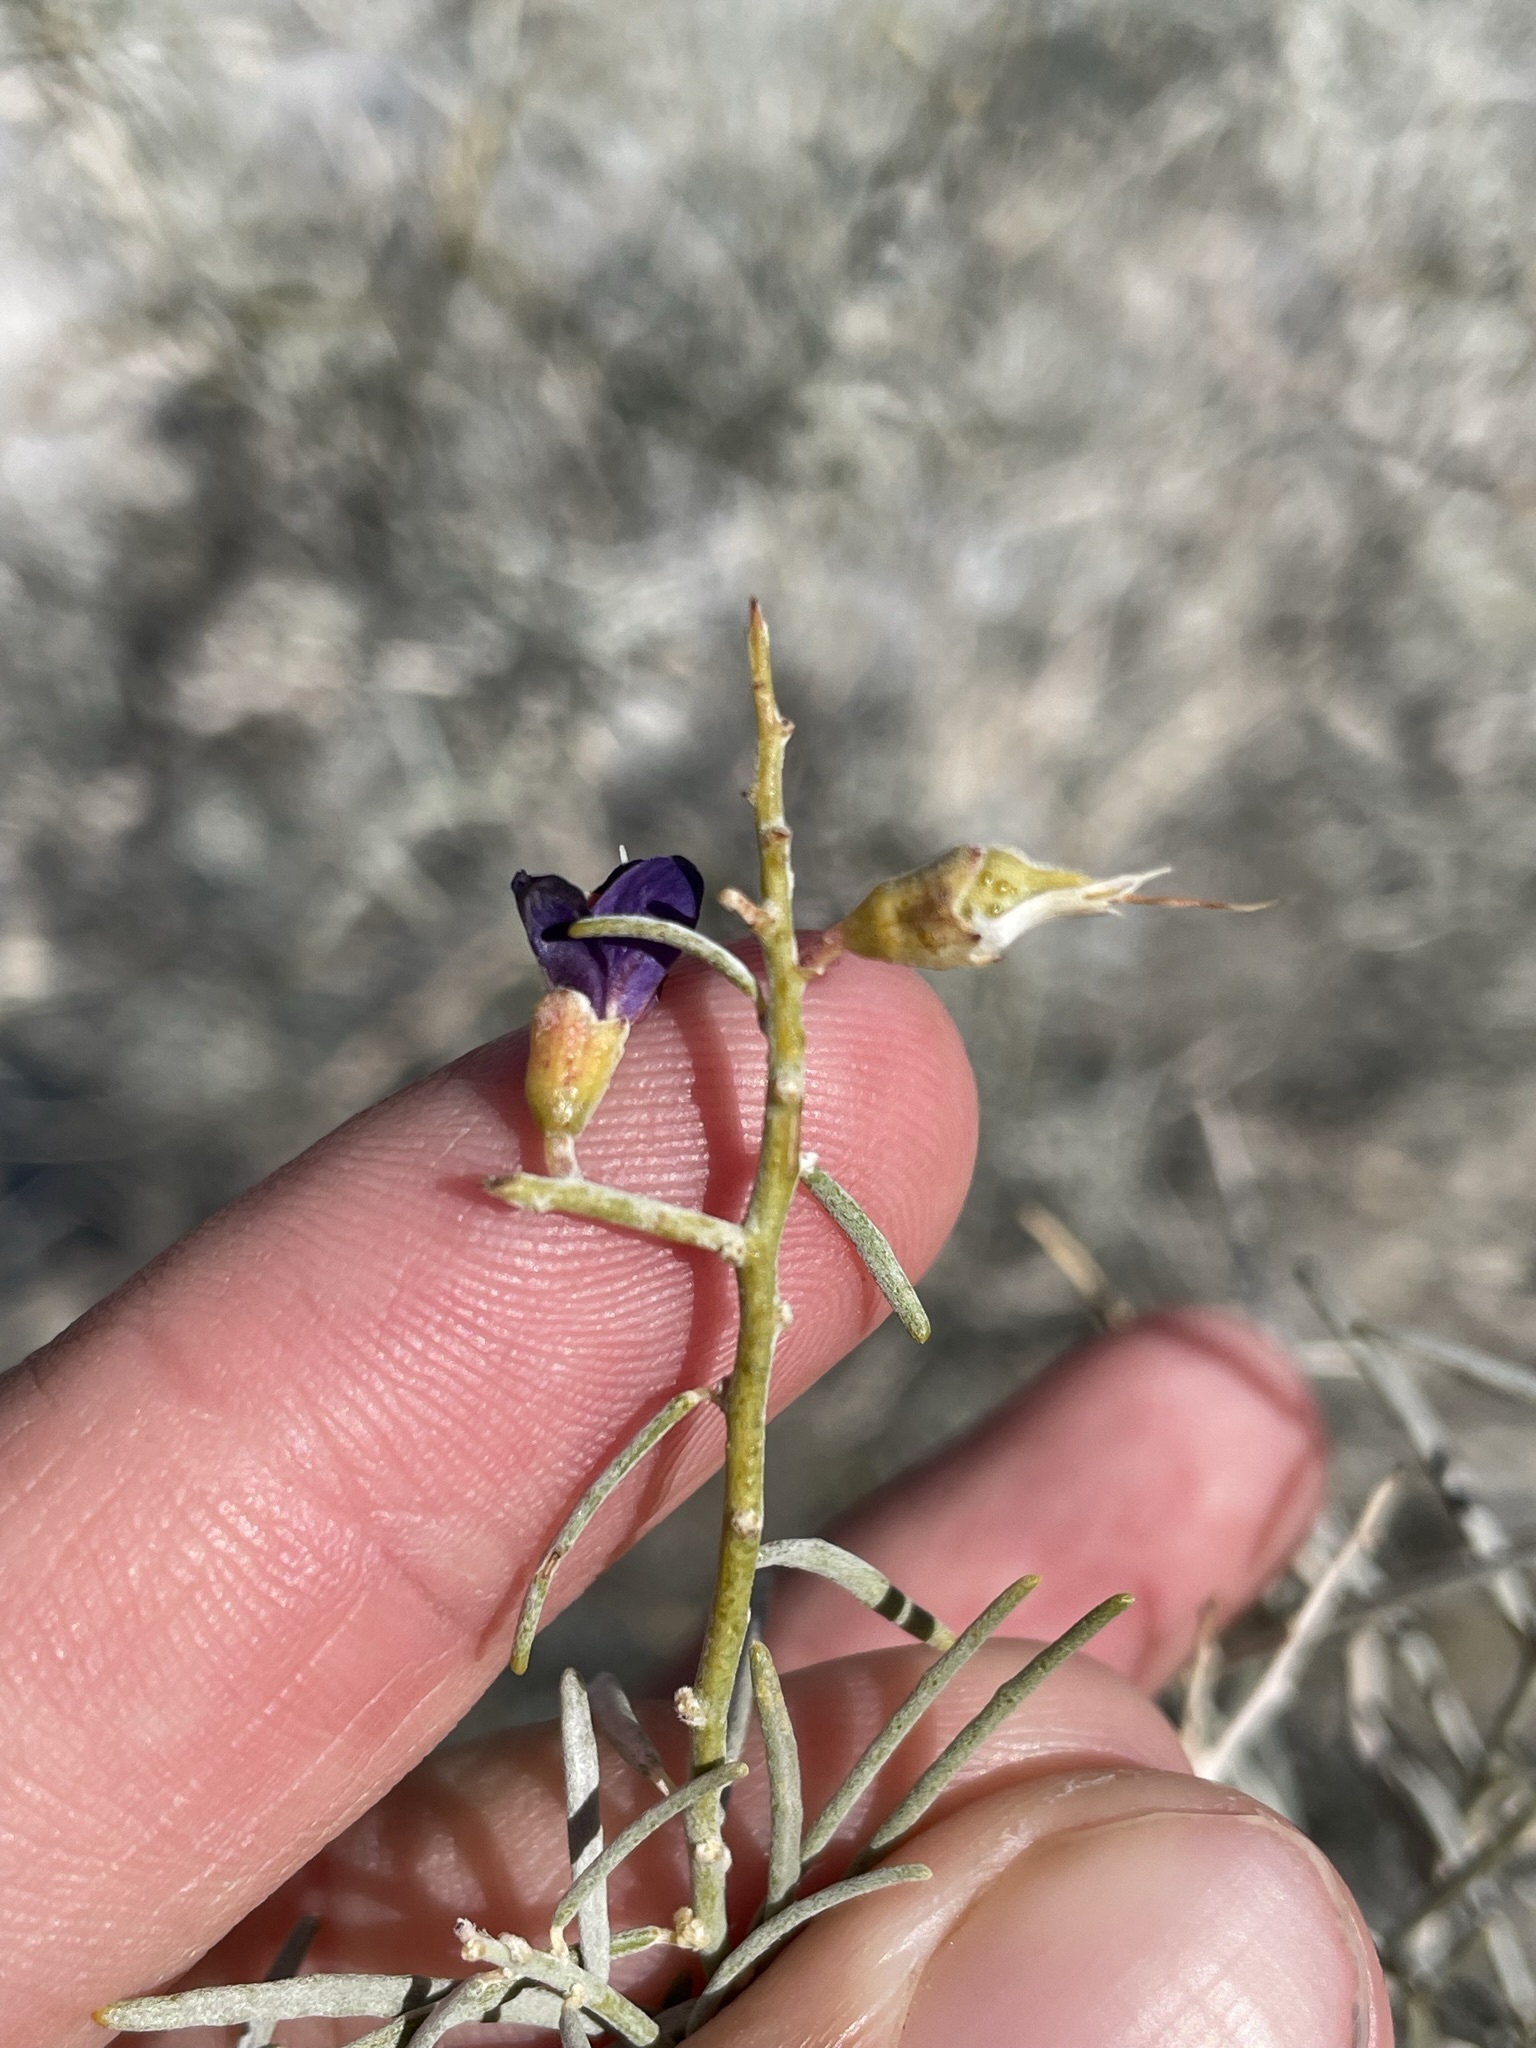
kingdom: Plantae
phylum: Tracheophyta
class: Magnoliopsida
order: Fabales
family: Fabaceae
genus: Psorothamnus
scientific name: Psorothamnus schottii
